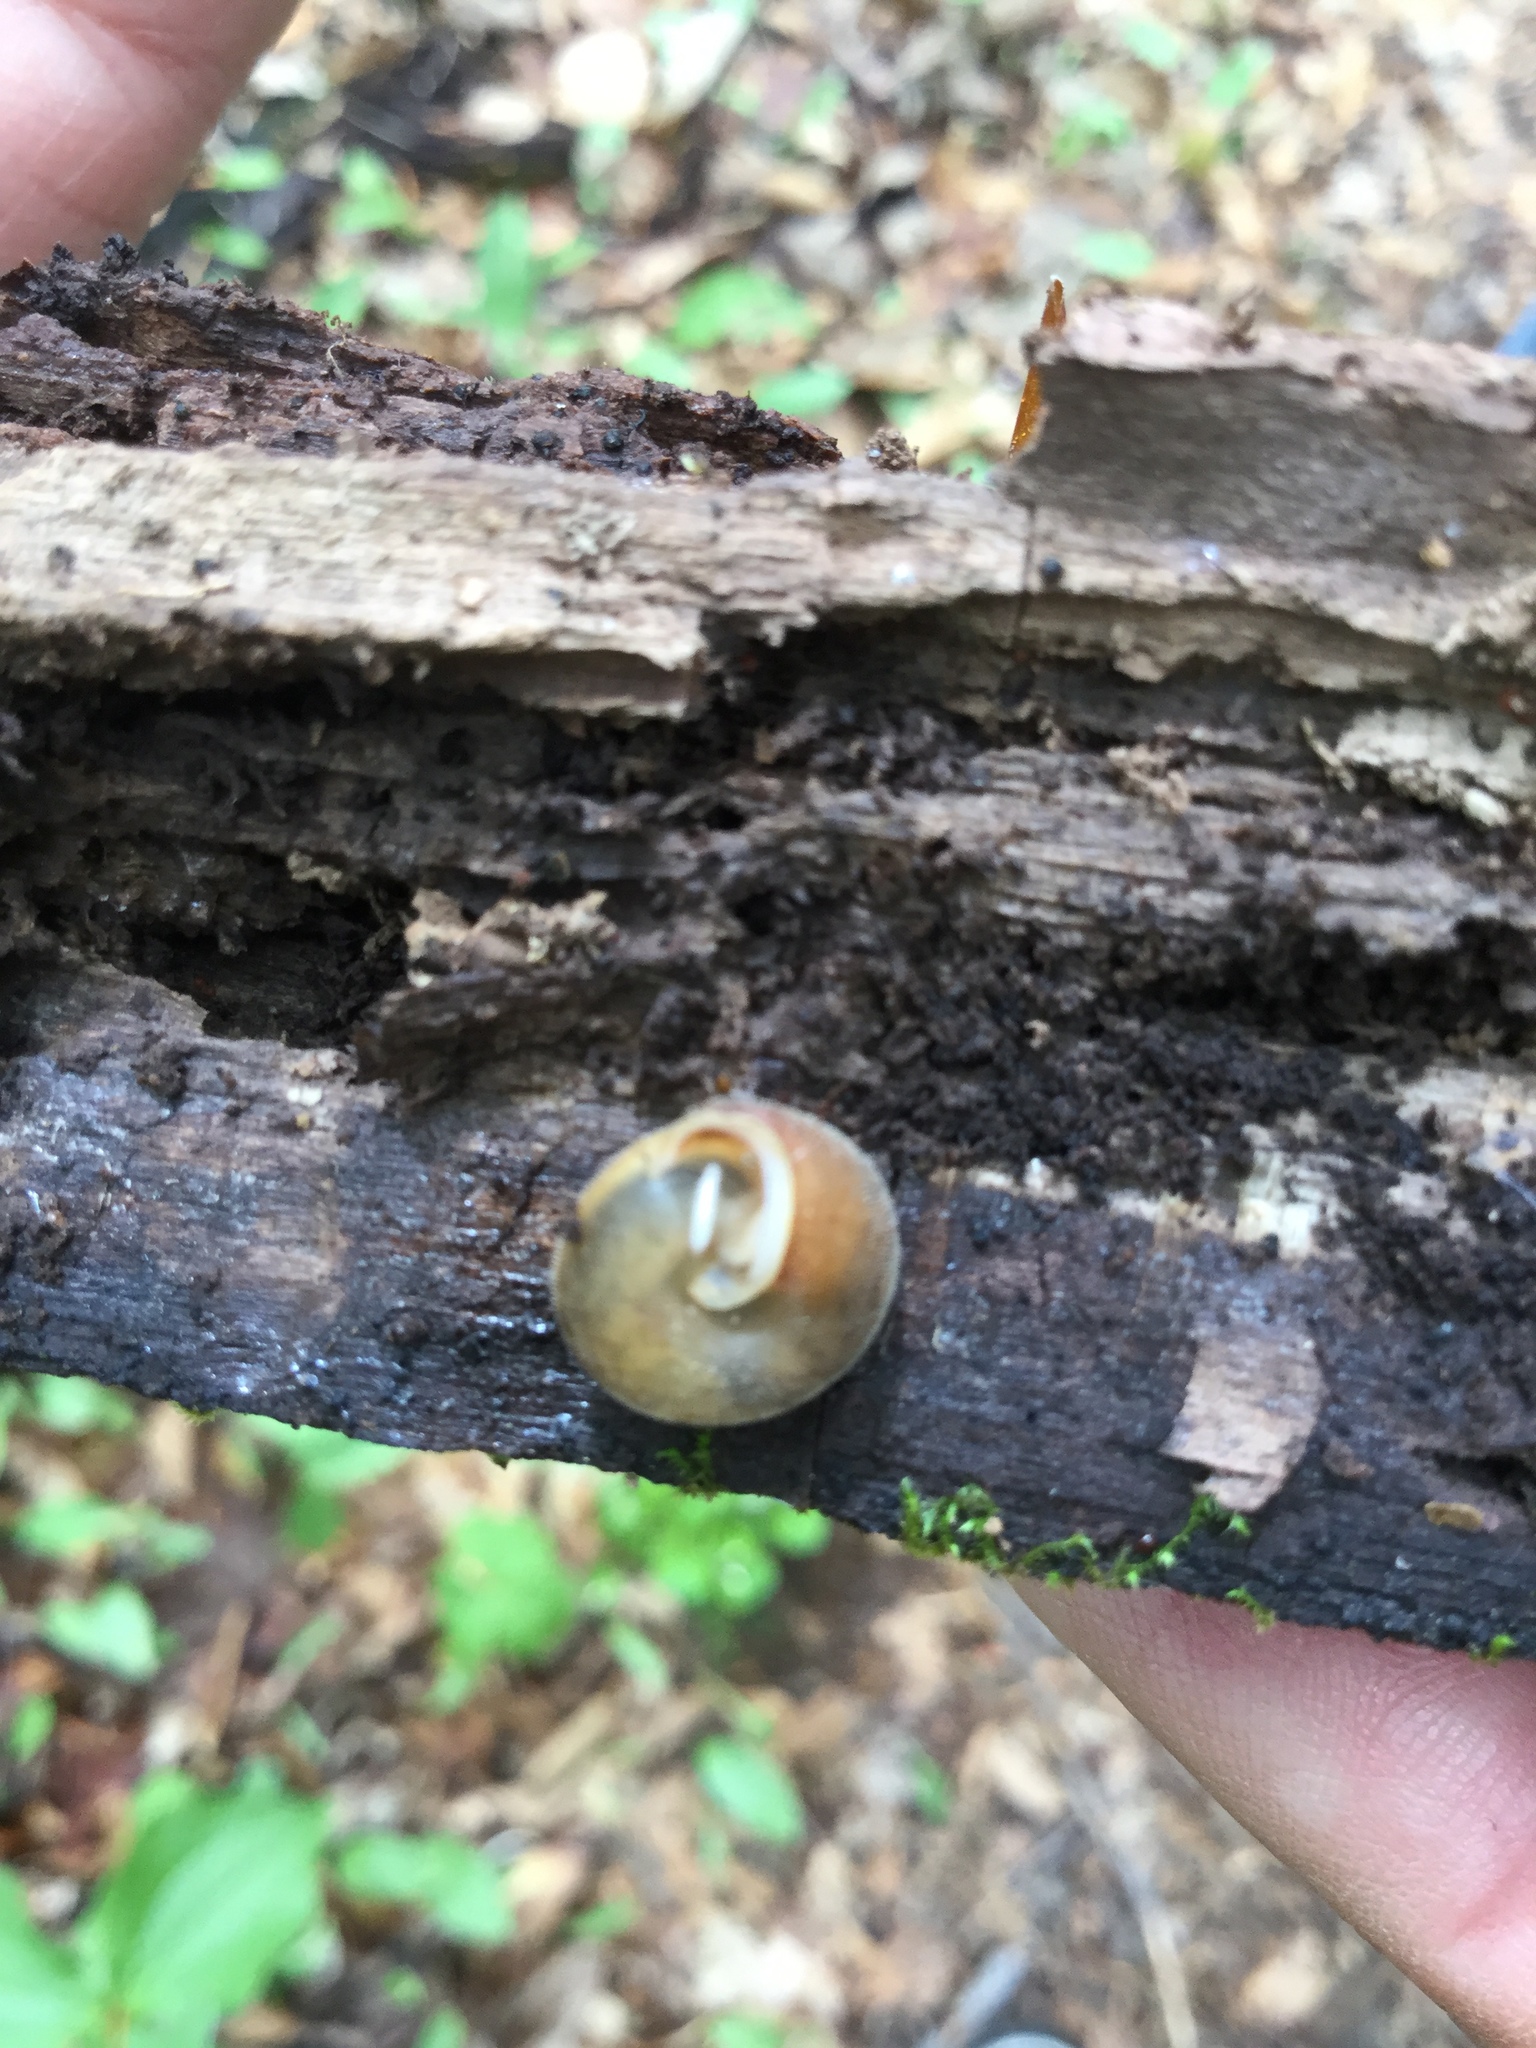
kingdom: Animalia
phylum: Mollusca
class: Gastropoda
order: Stylommatophora
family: Polygyridae
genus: Euchemotrema
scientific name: Euchemotrema fraternum
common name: Upland pillsnail
